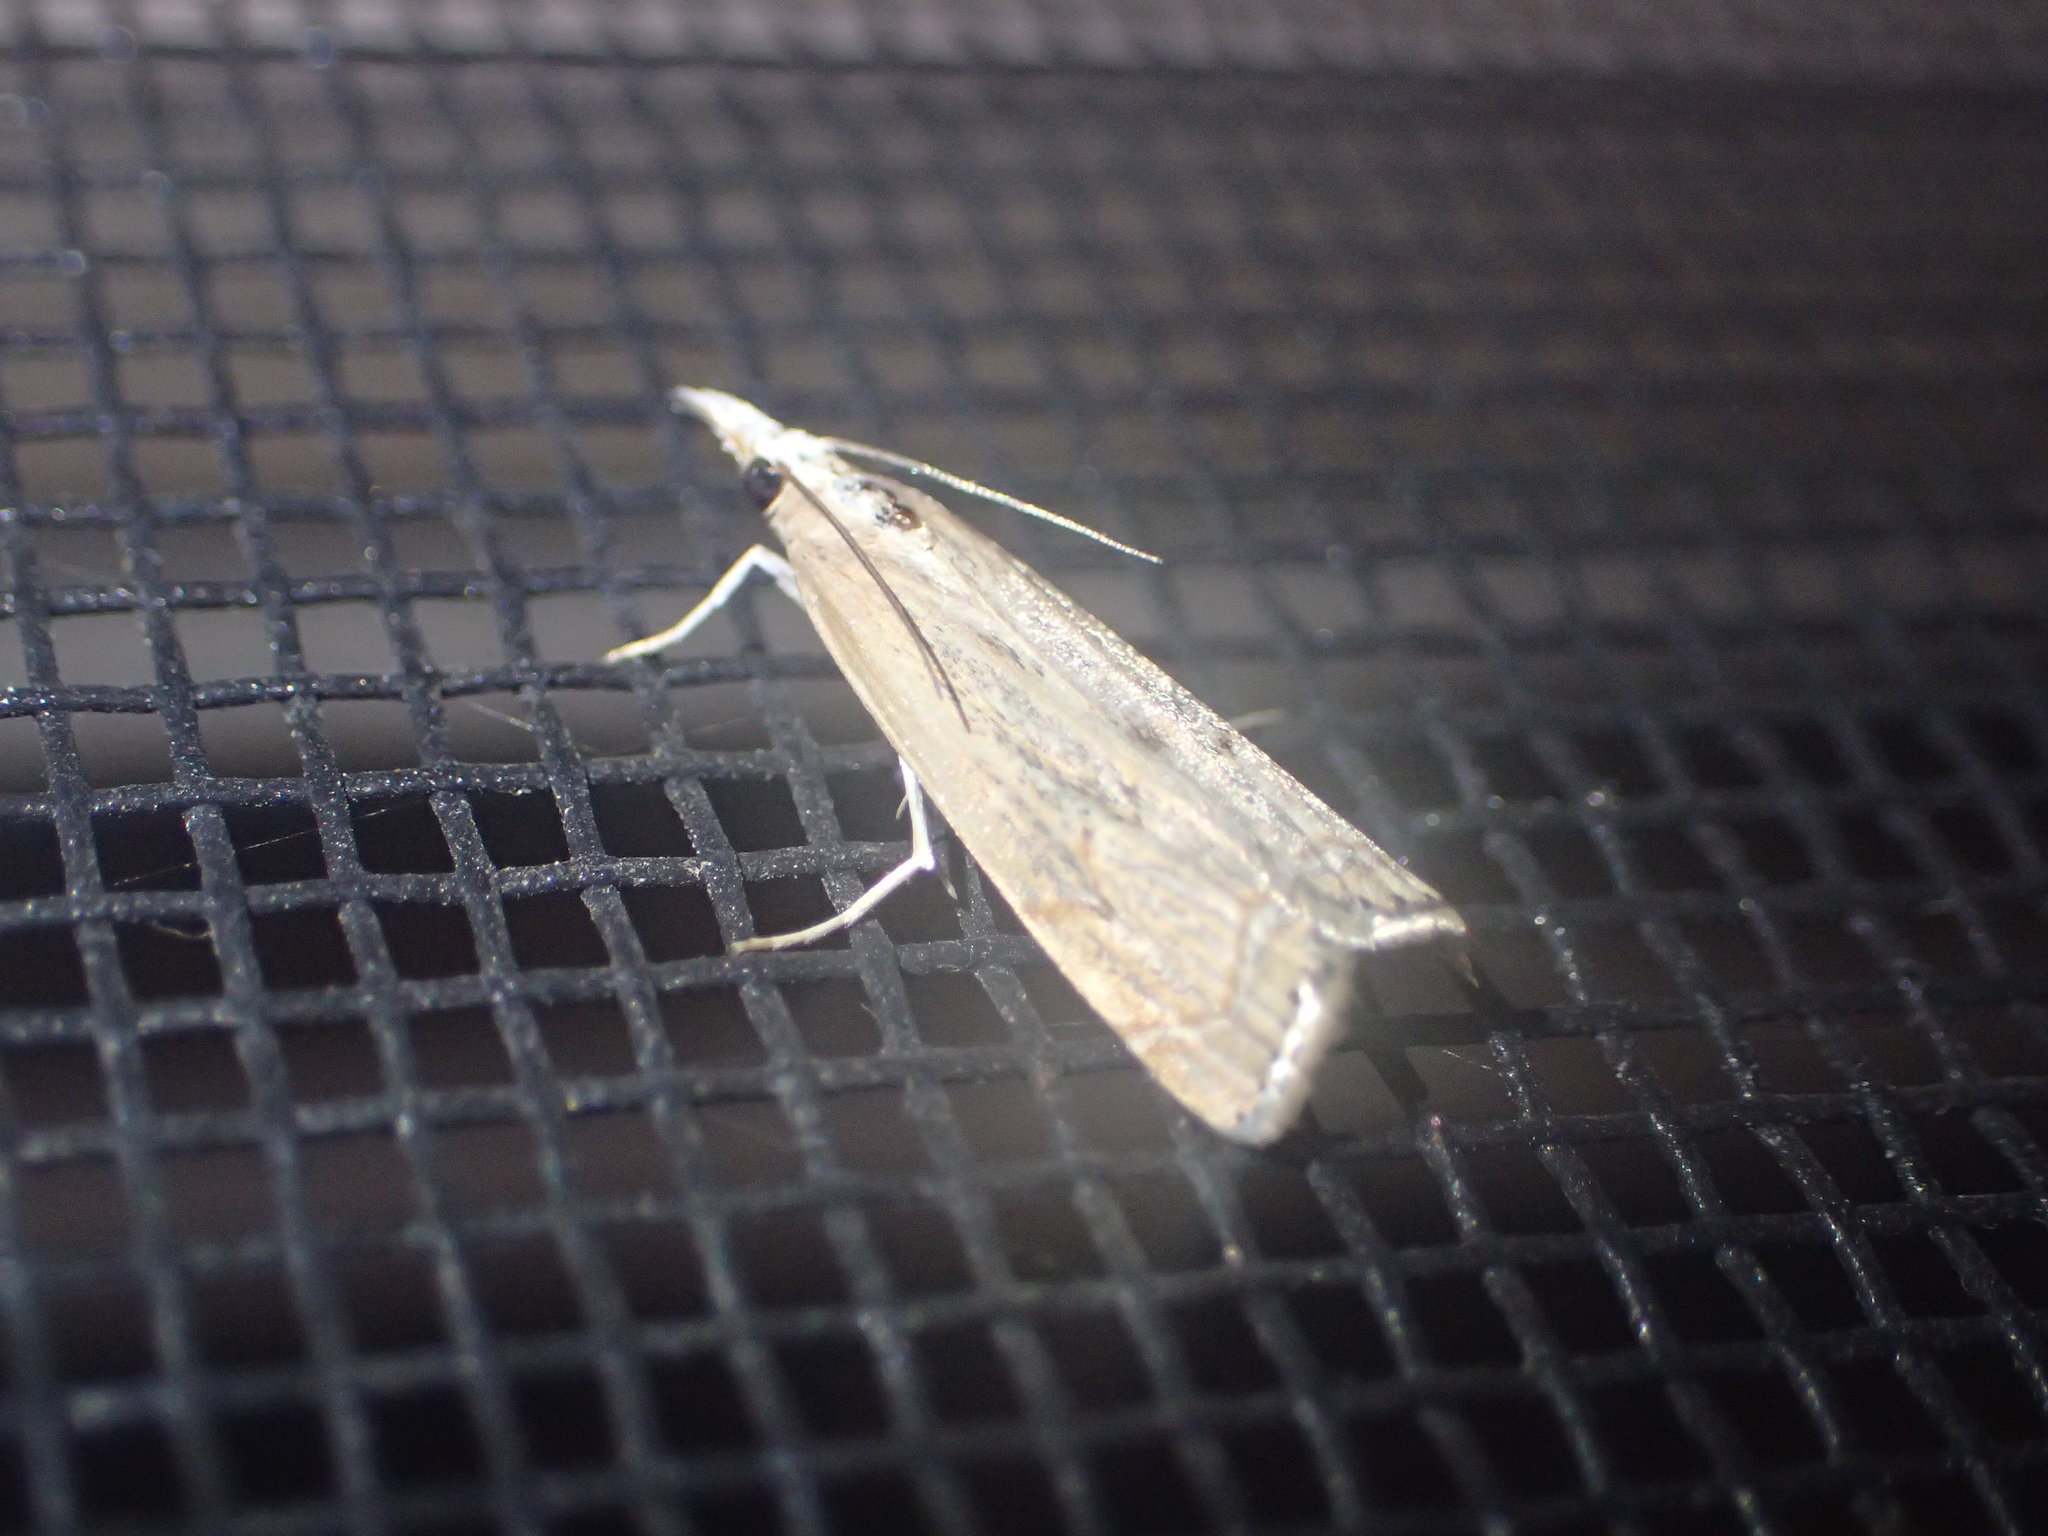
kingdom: Animalia
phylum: Arthropoda
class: Insecta
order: Lepidoptera
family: Crambidae
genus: Parapediasia
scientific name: Parapediasia teterellus
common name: Bluegrass webworm moth
